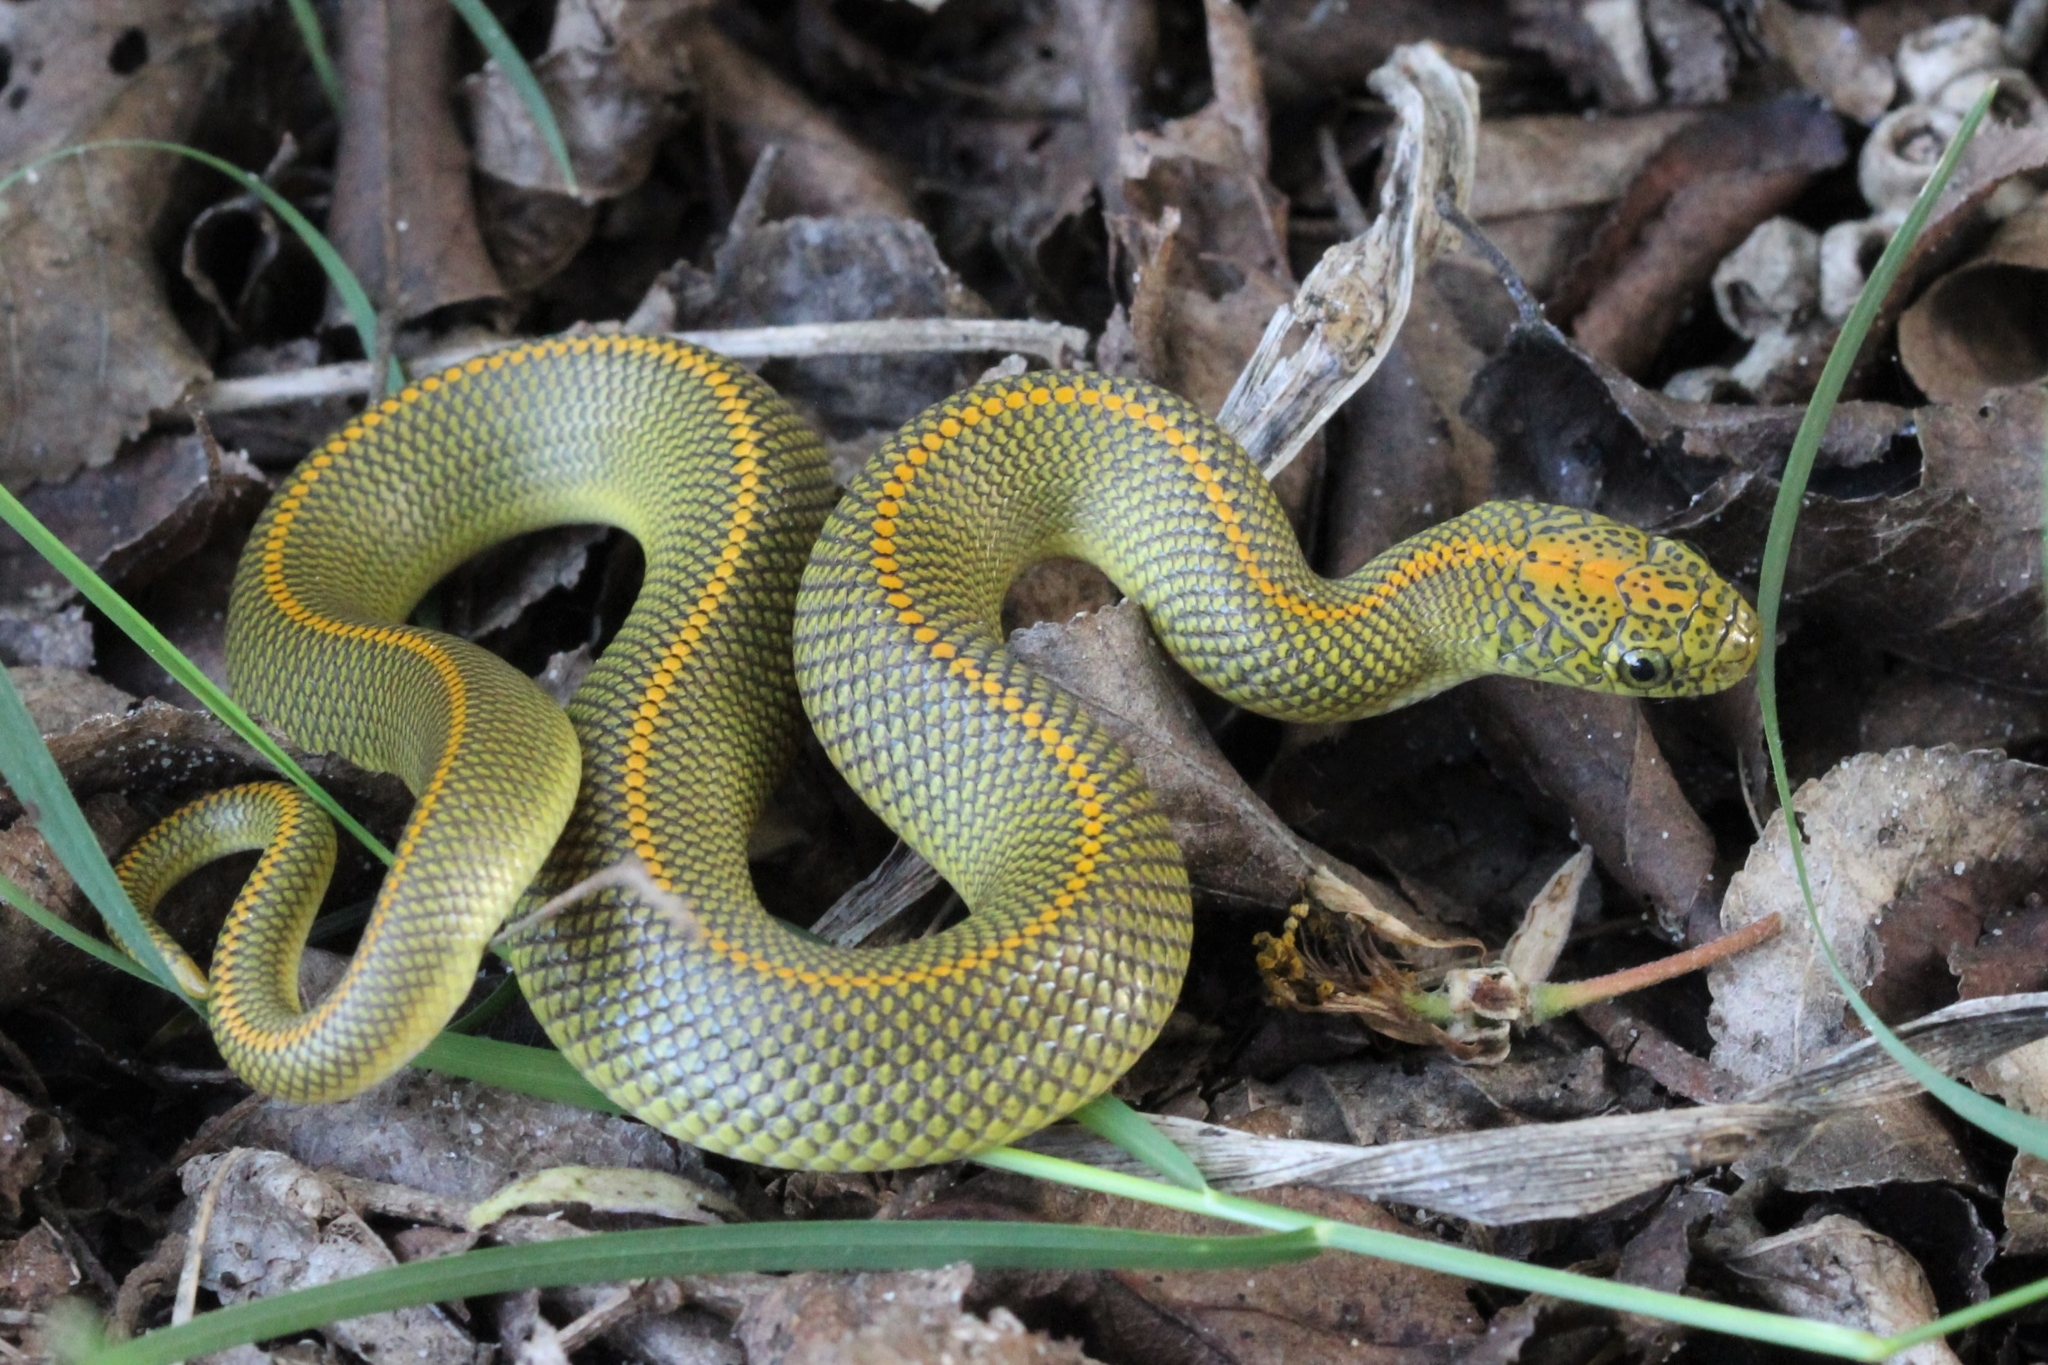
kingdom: Animalia
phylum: Chordata
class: Squamata
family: Lamprophiidae
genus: Lamprophis
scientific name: Lamprophis aurora
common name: Aurora house snake
